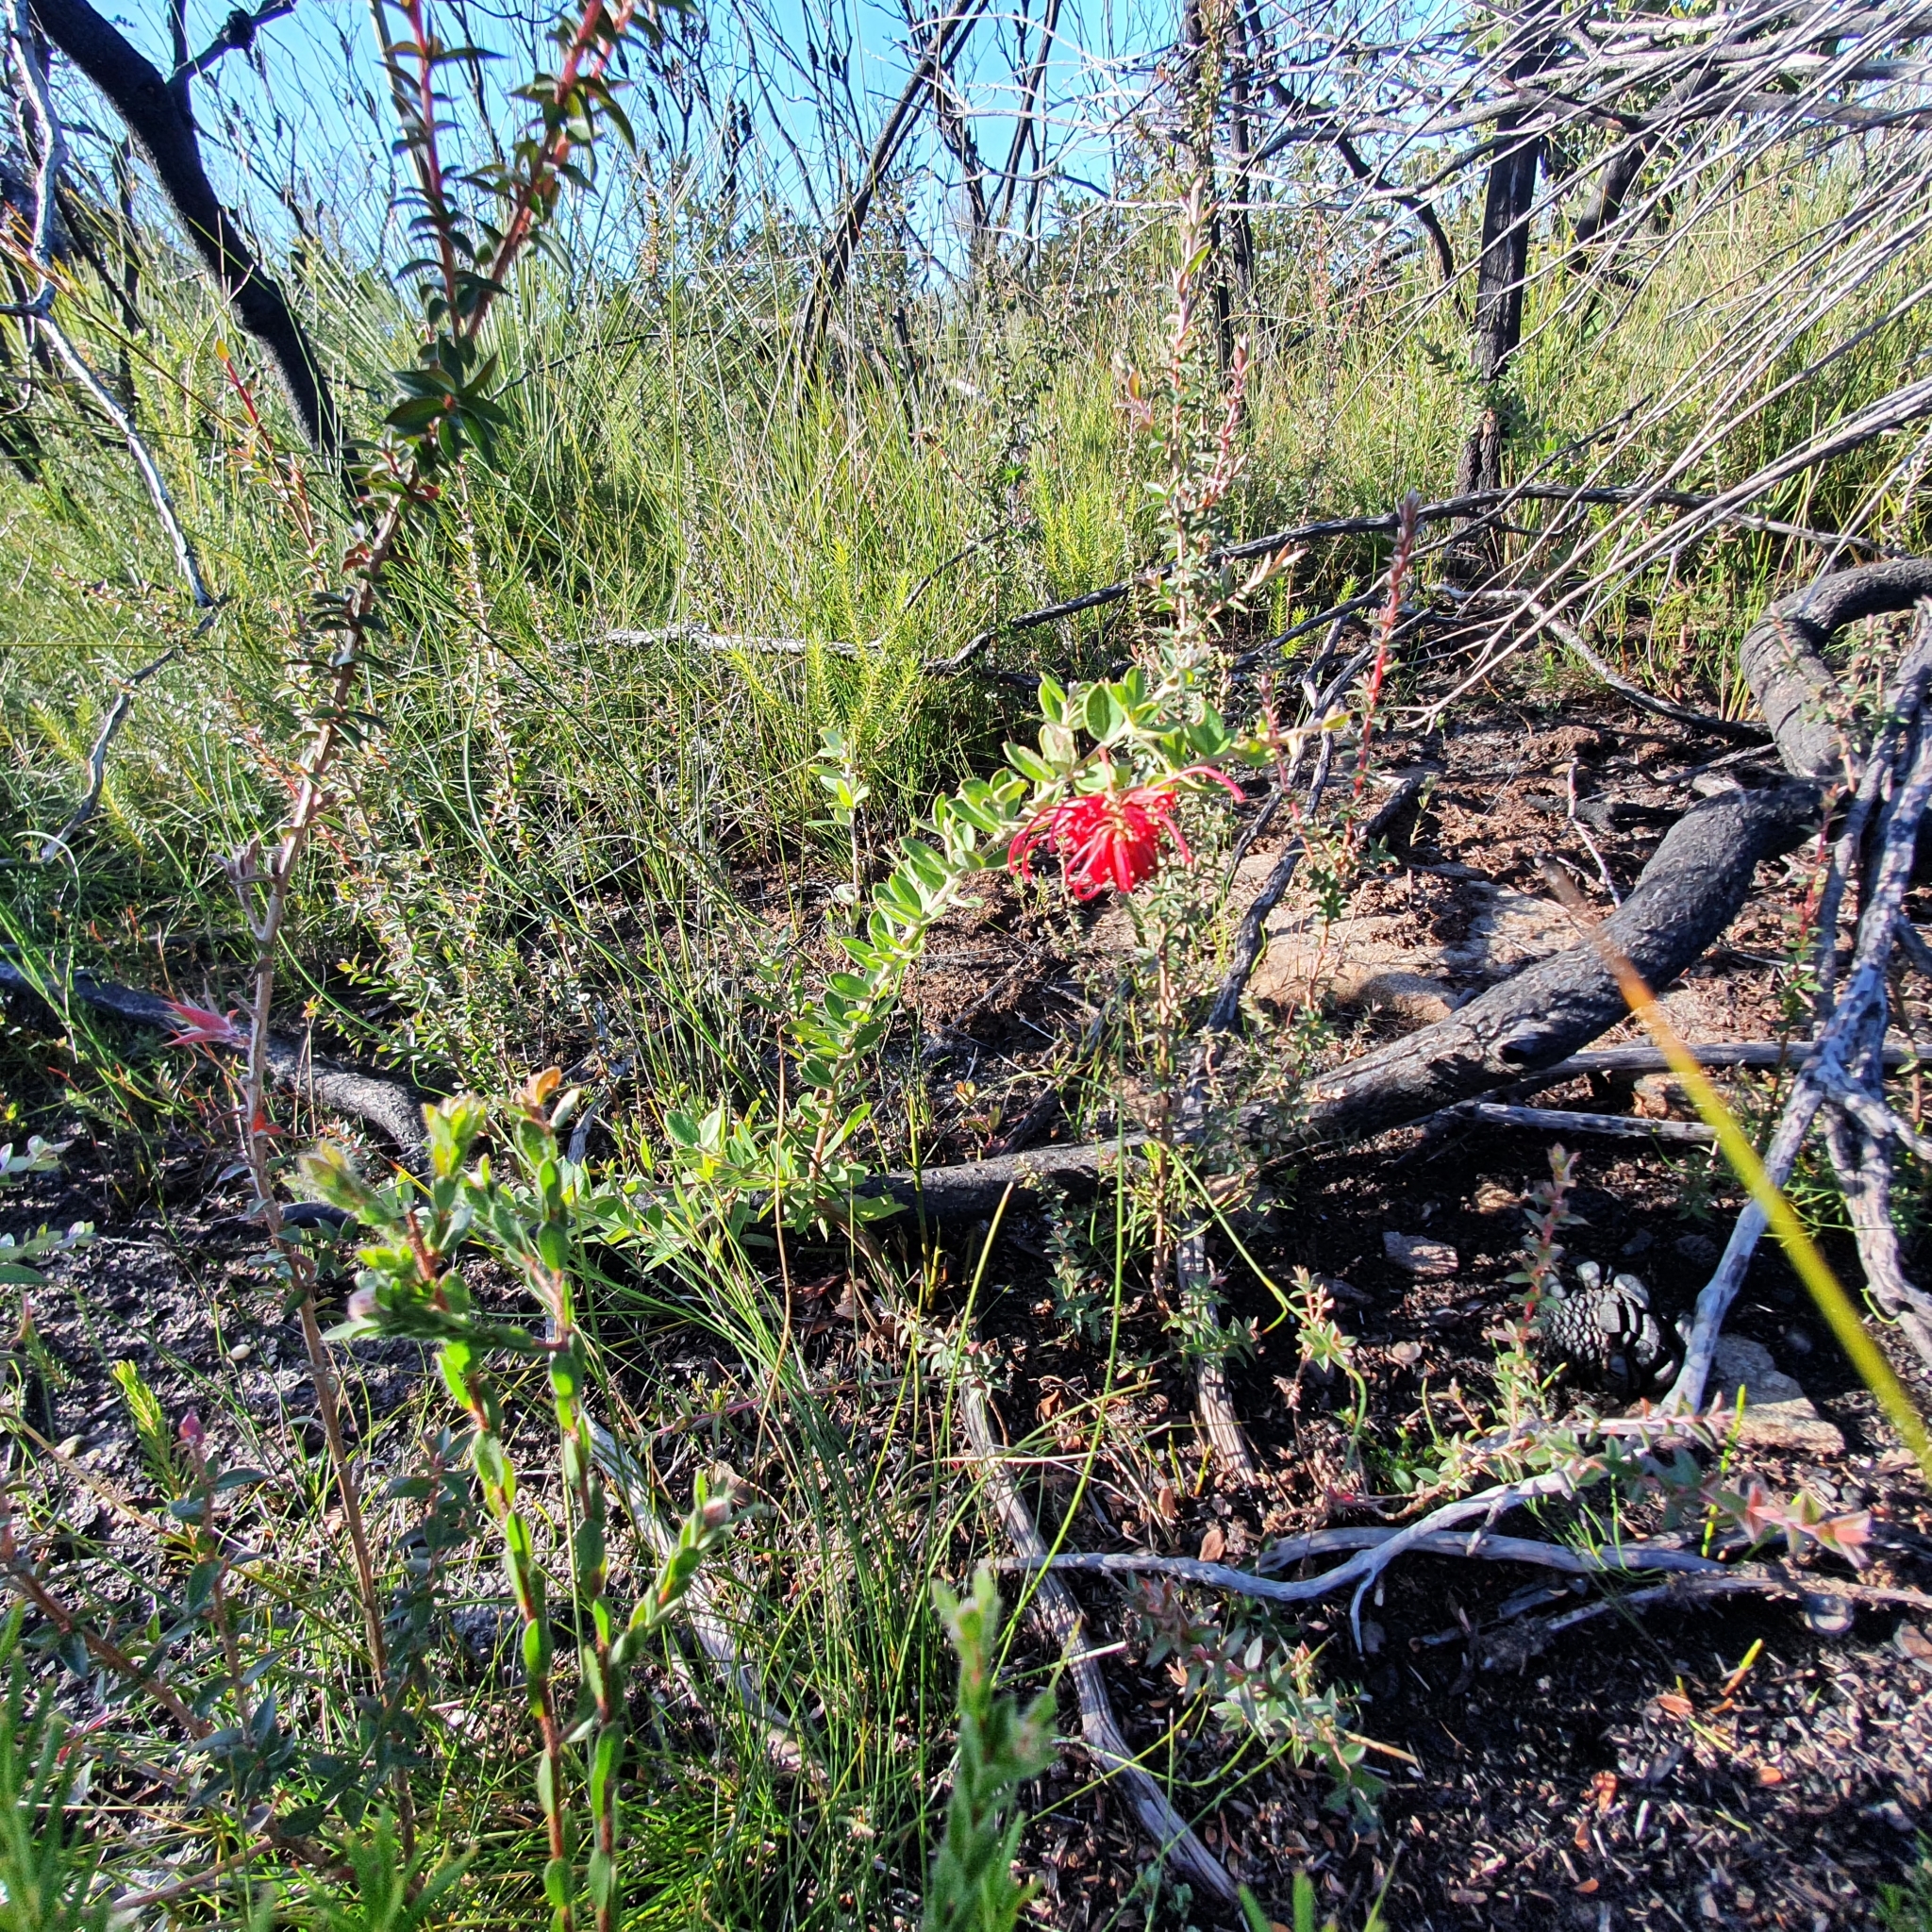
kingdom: Plantae
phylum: Tracheophyta
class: Magnoliopsida
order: Proteales
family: Proteaceae
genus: Grevillea
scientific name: Grevillea speciosa
